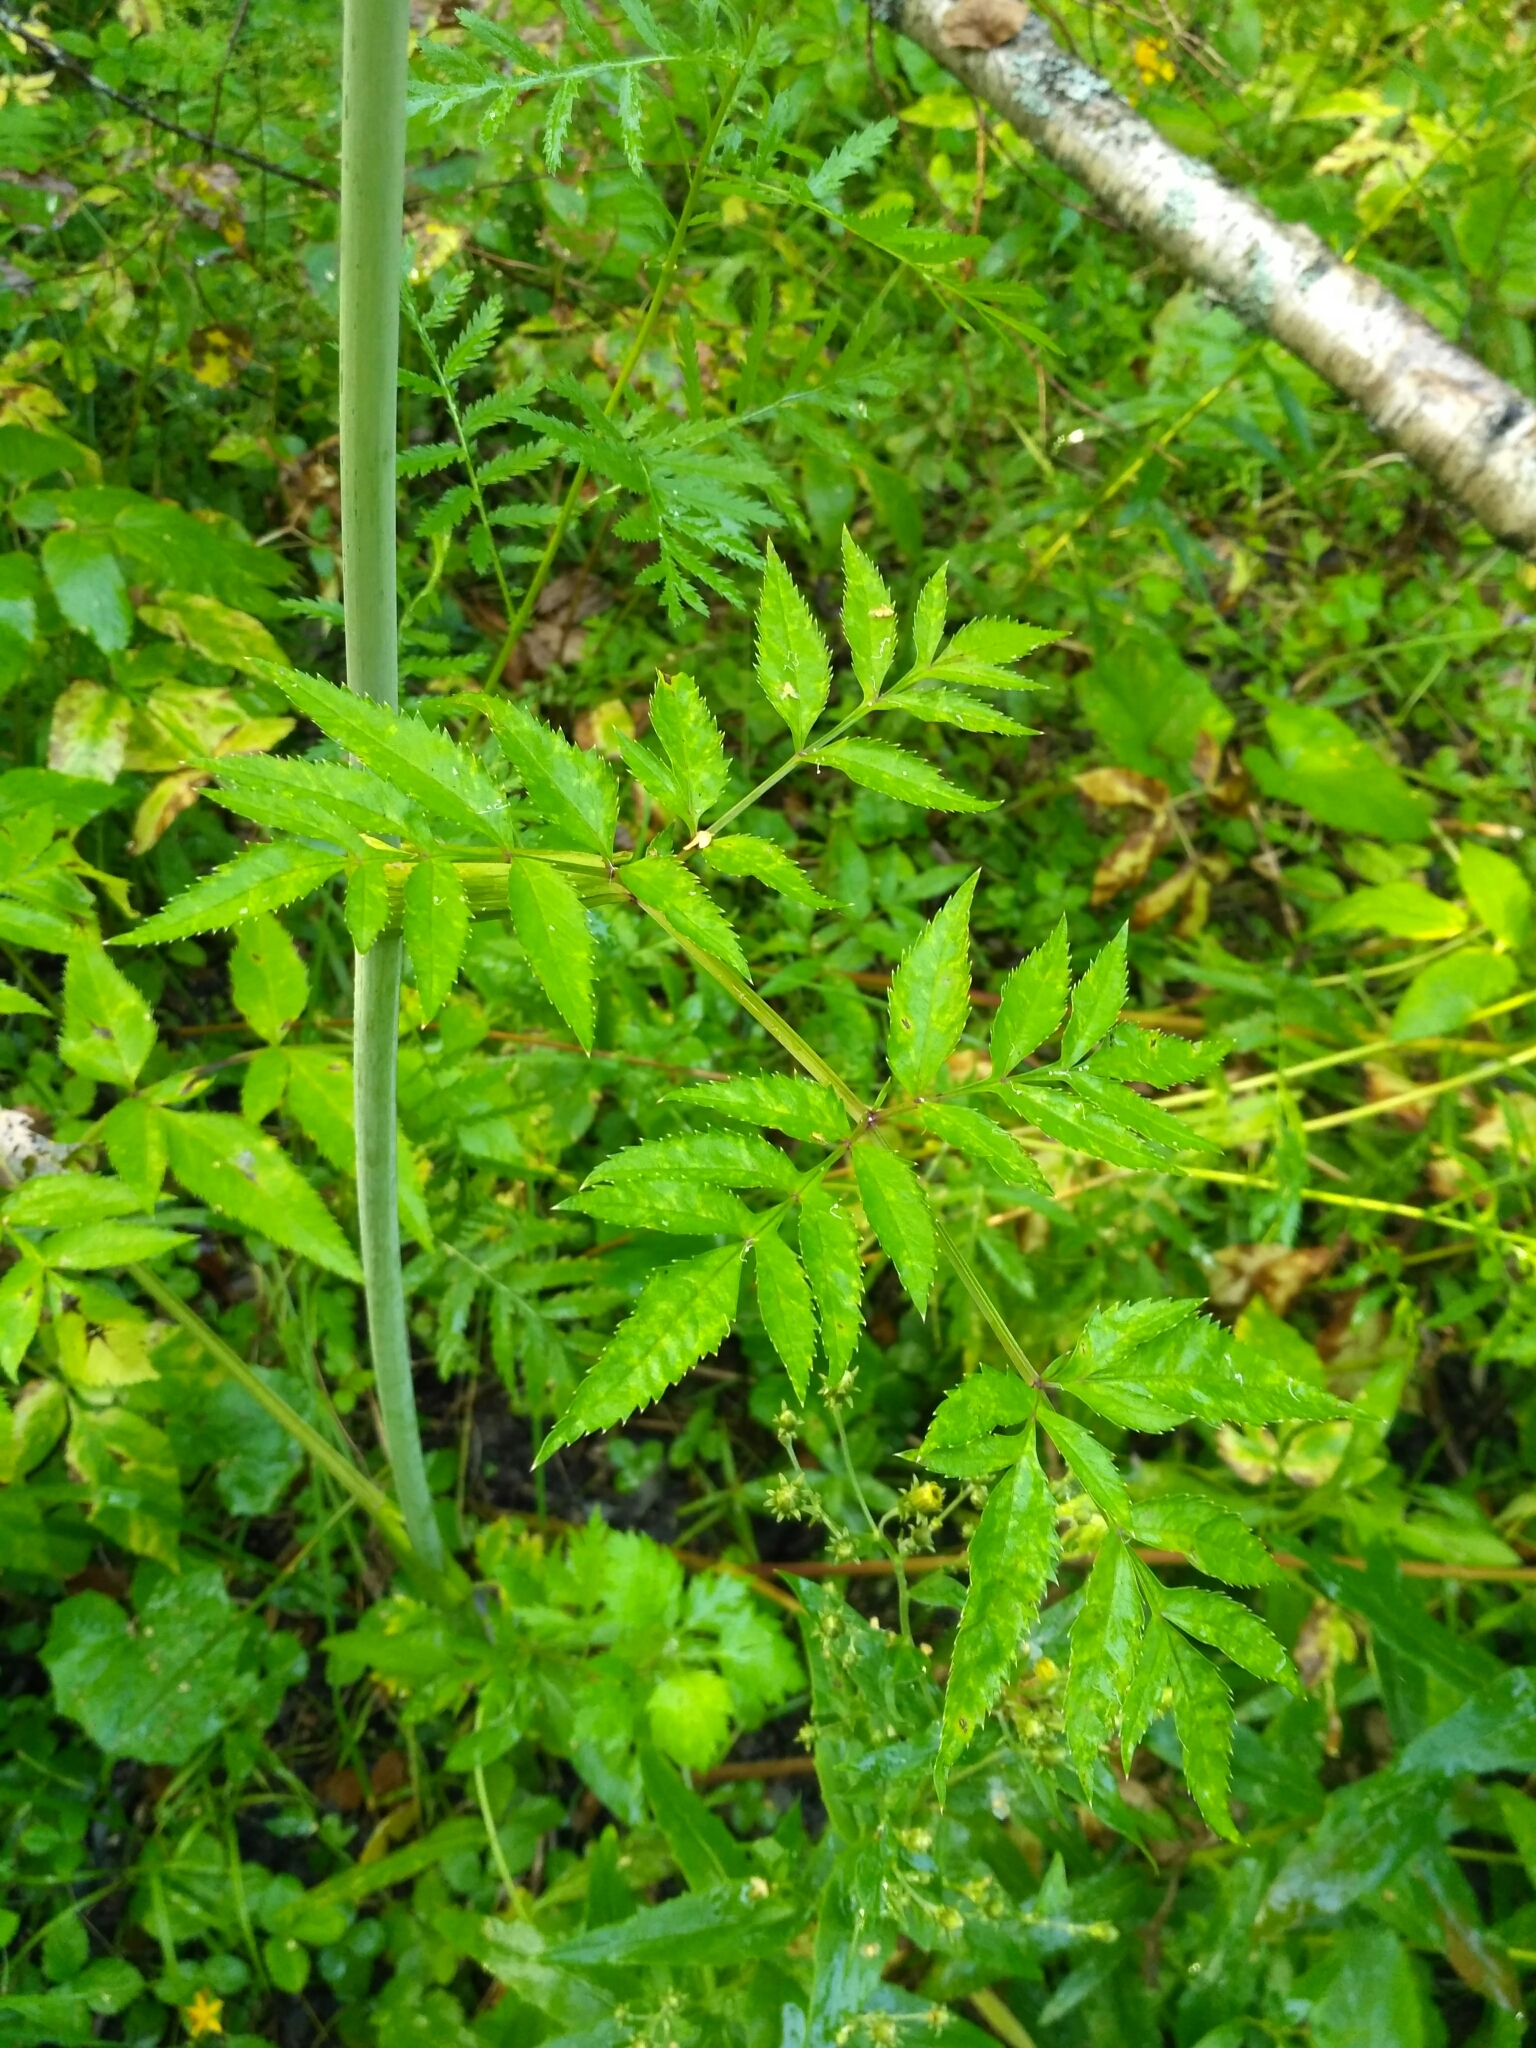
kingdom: Plantae
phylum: Tracheophyta
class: Magnoliopsida
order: Apiales
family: Apiaceae
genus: Angelica
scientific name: Angelica sylvestris
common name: Wild angelica
